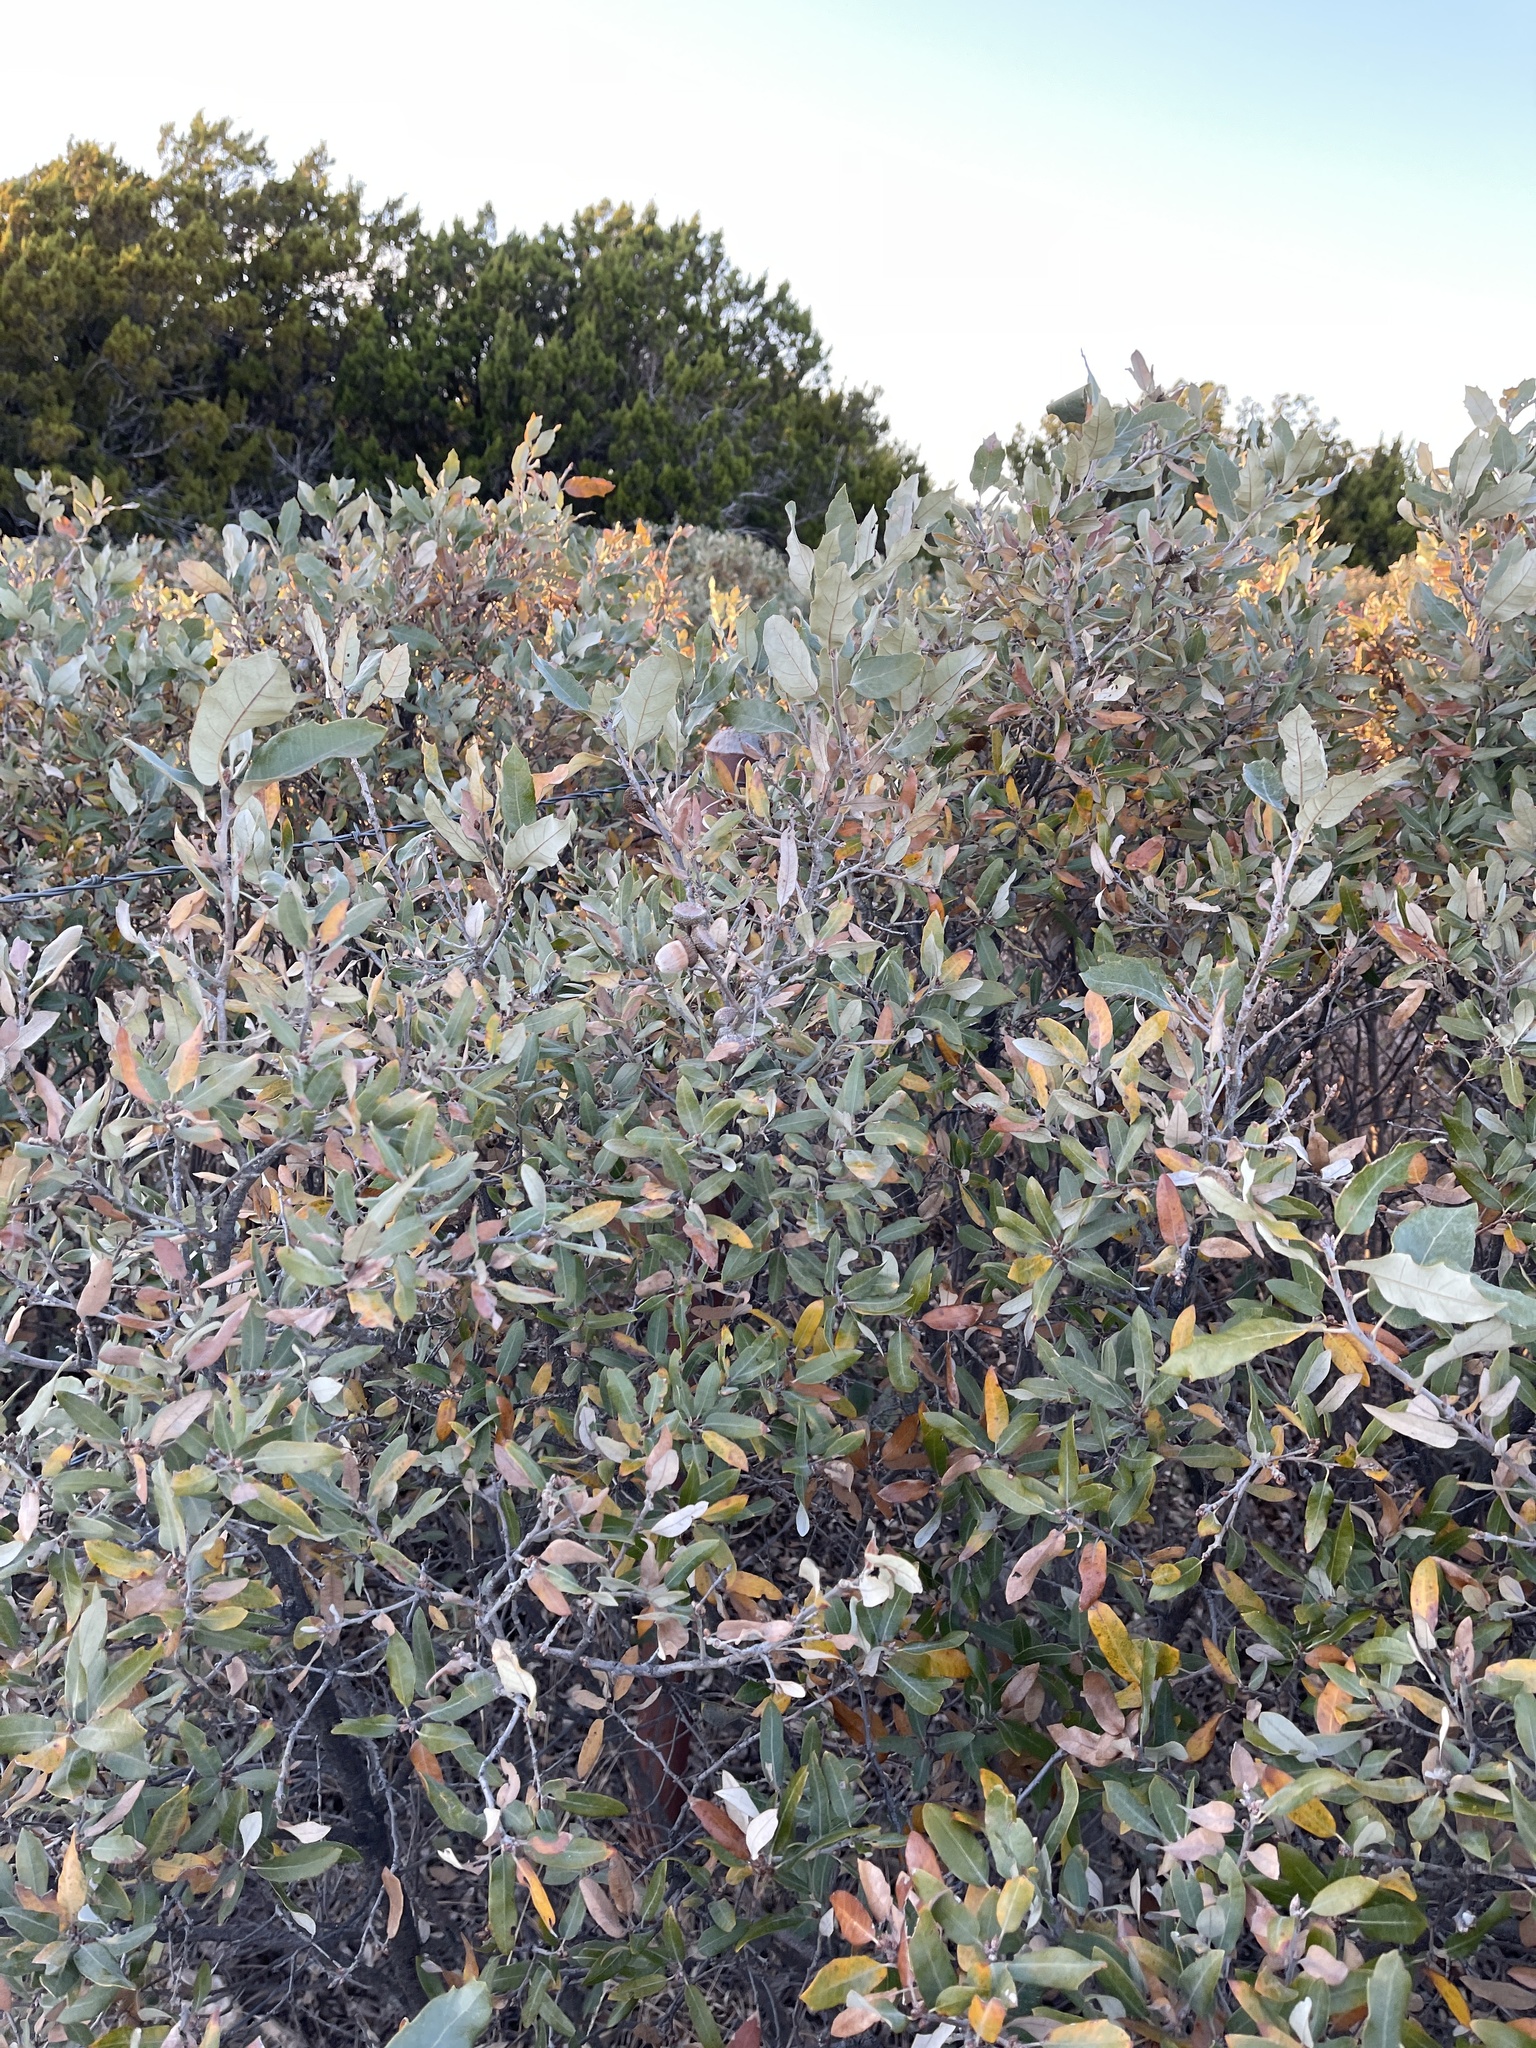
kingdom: Plantae
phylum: Tracheophyta
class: Magnoliopsida
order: Fagales
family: Fagaceae
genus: Quercus
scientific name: Quercus mohriana
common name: Mohr oak
